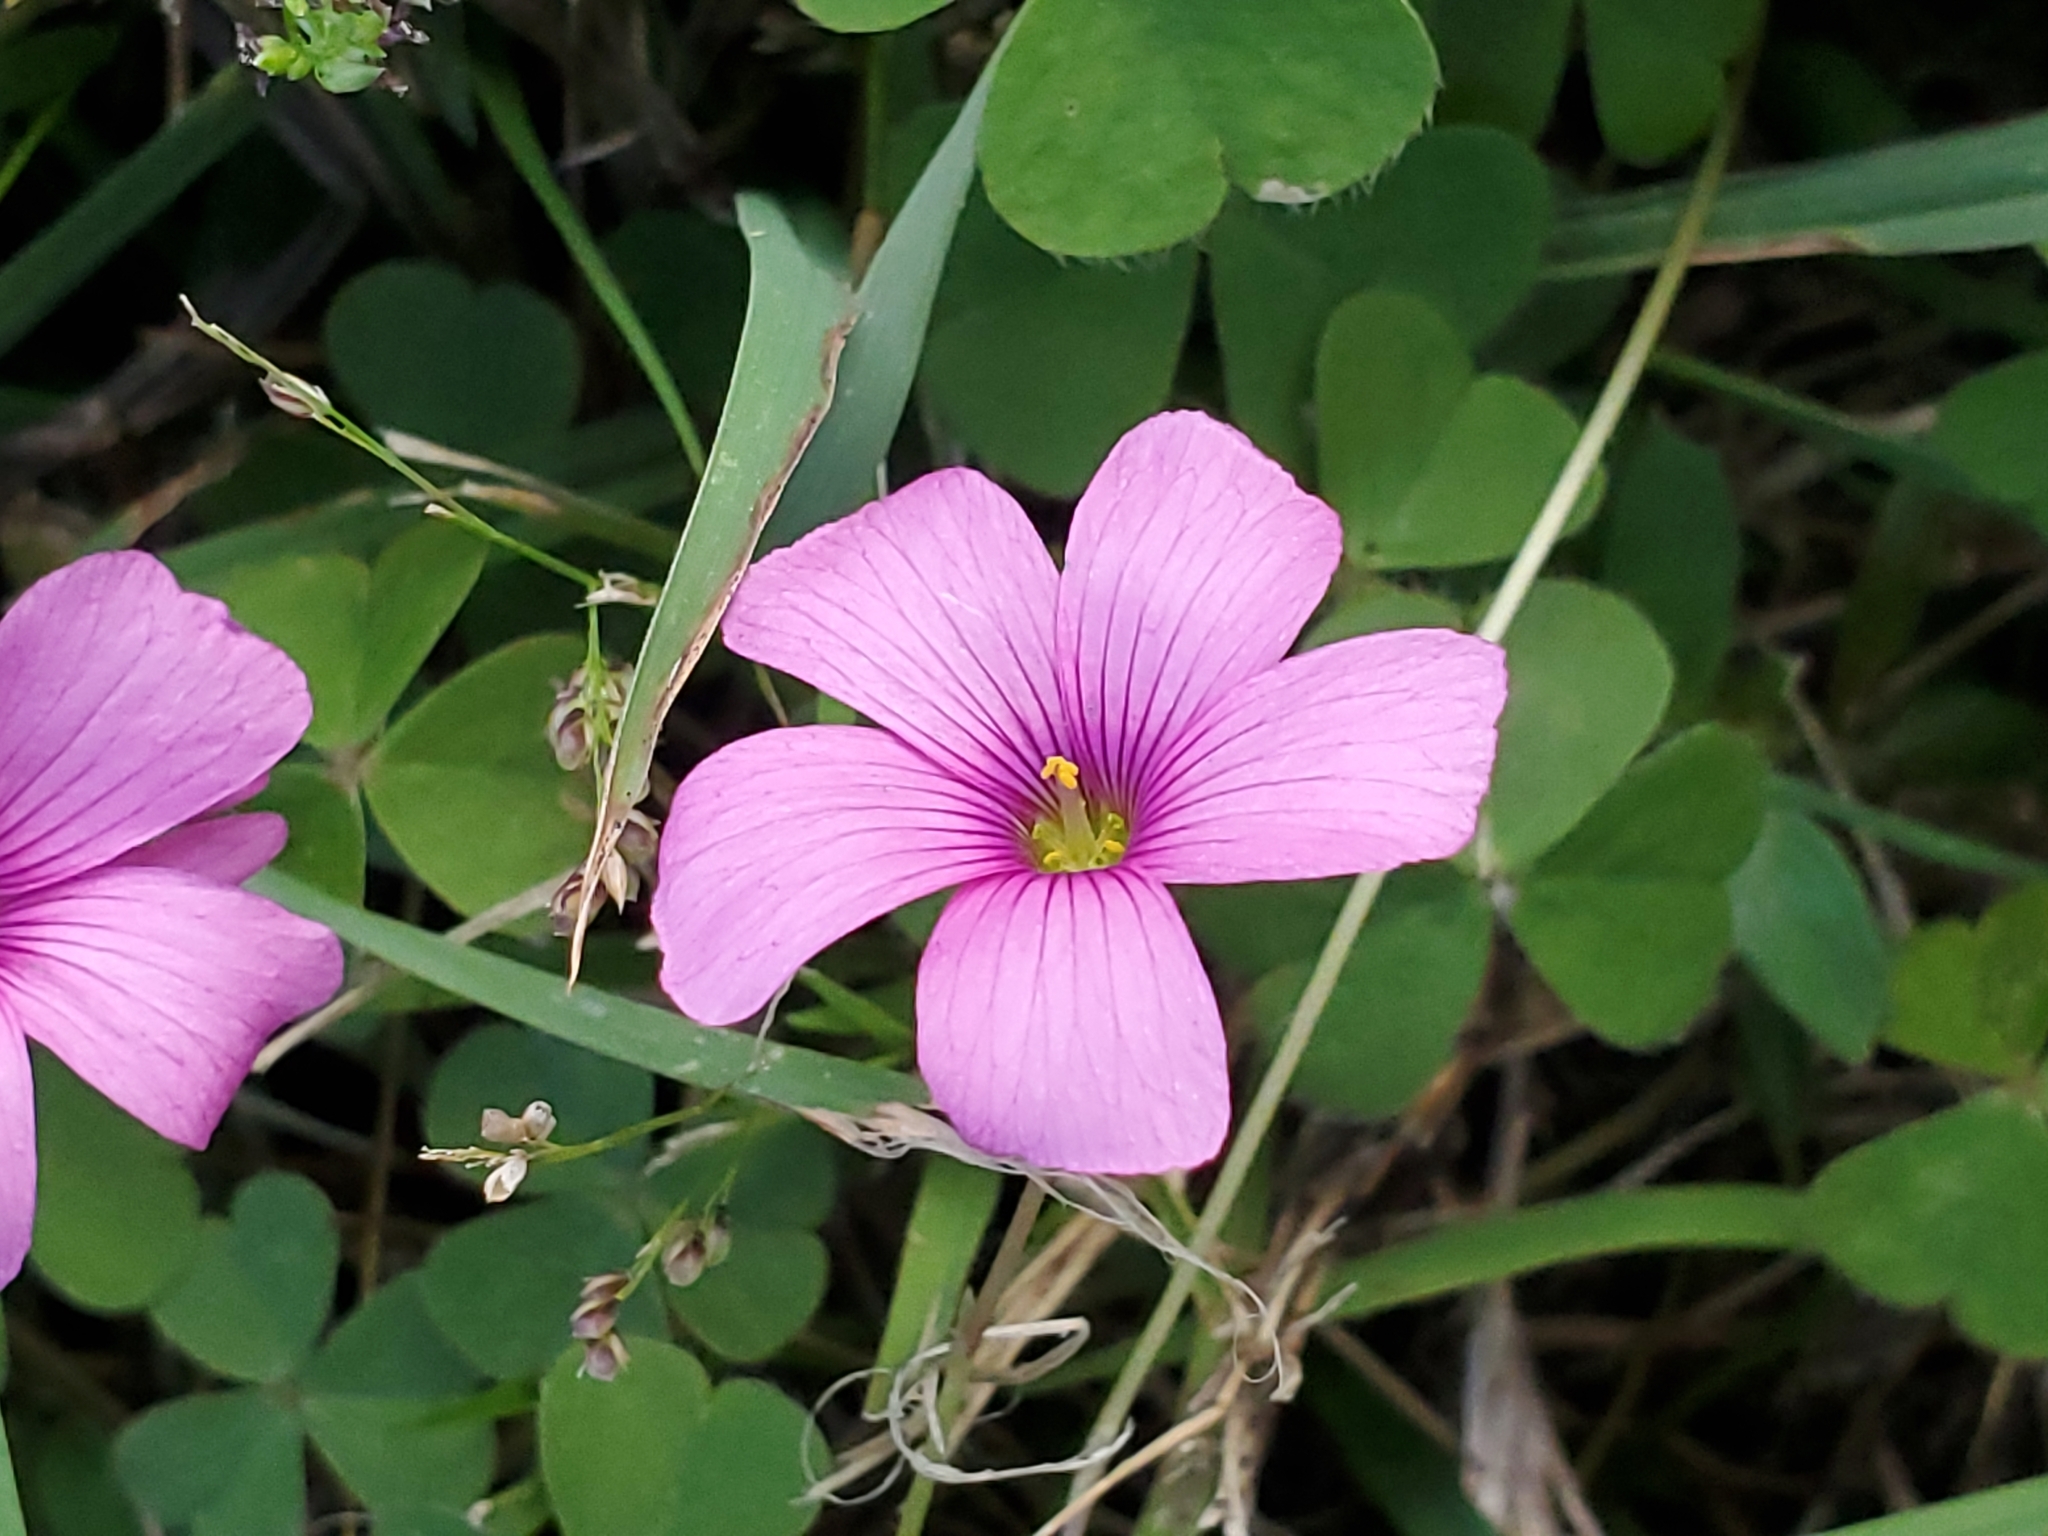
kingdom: Plantae
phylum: Tracheophyta
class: Magnoliopsida
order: Oxalidales
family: Oxalidaceae
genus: Oxalis
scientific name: Oxalis hispidula
